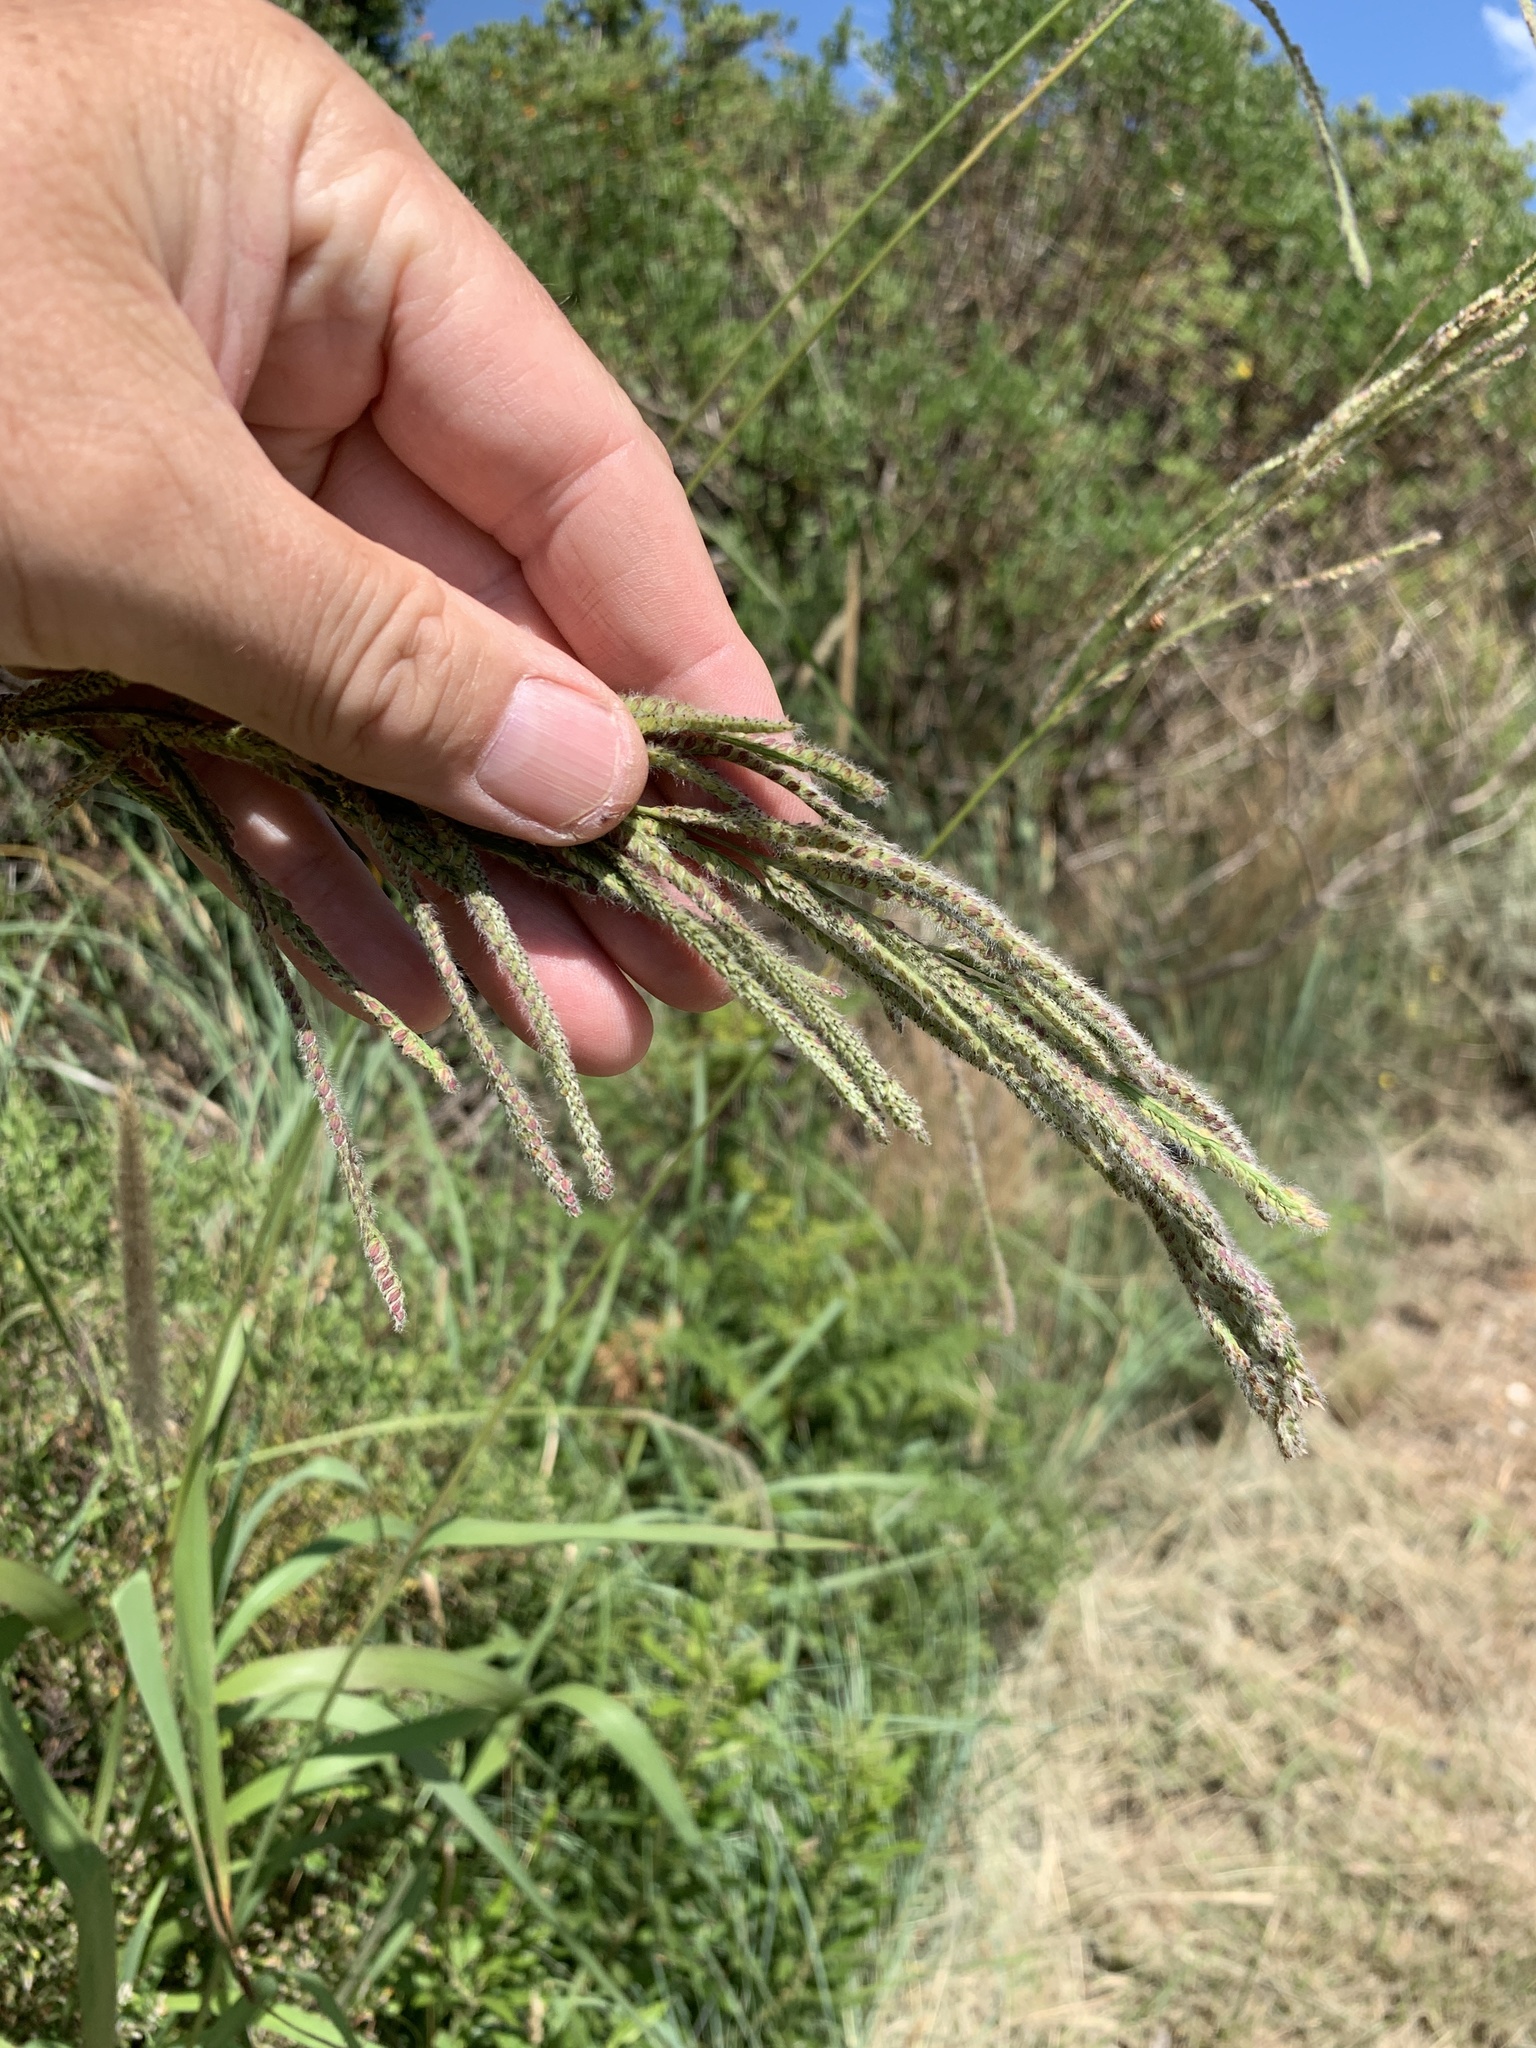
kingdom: Plantae
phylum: Tracheophyta
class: Liliopsida
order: Poales
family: Poaceae
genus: Paspalum
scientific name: Paspalum urvillei
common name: Vasey's grass
